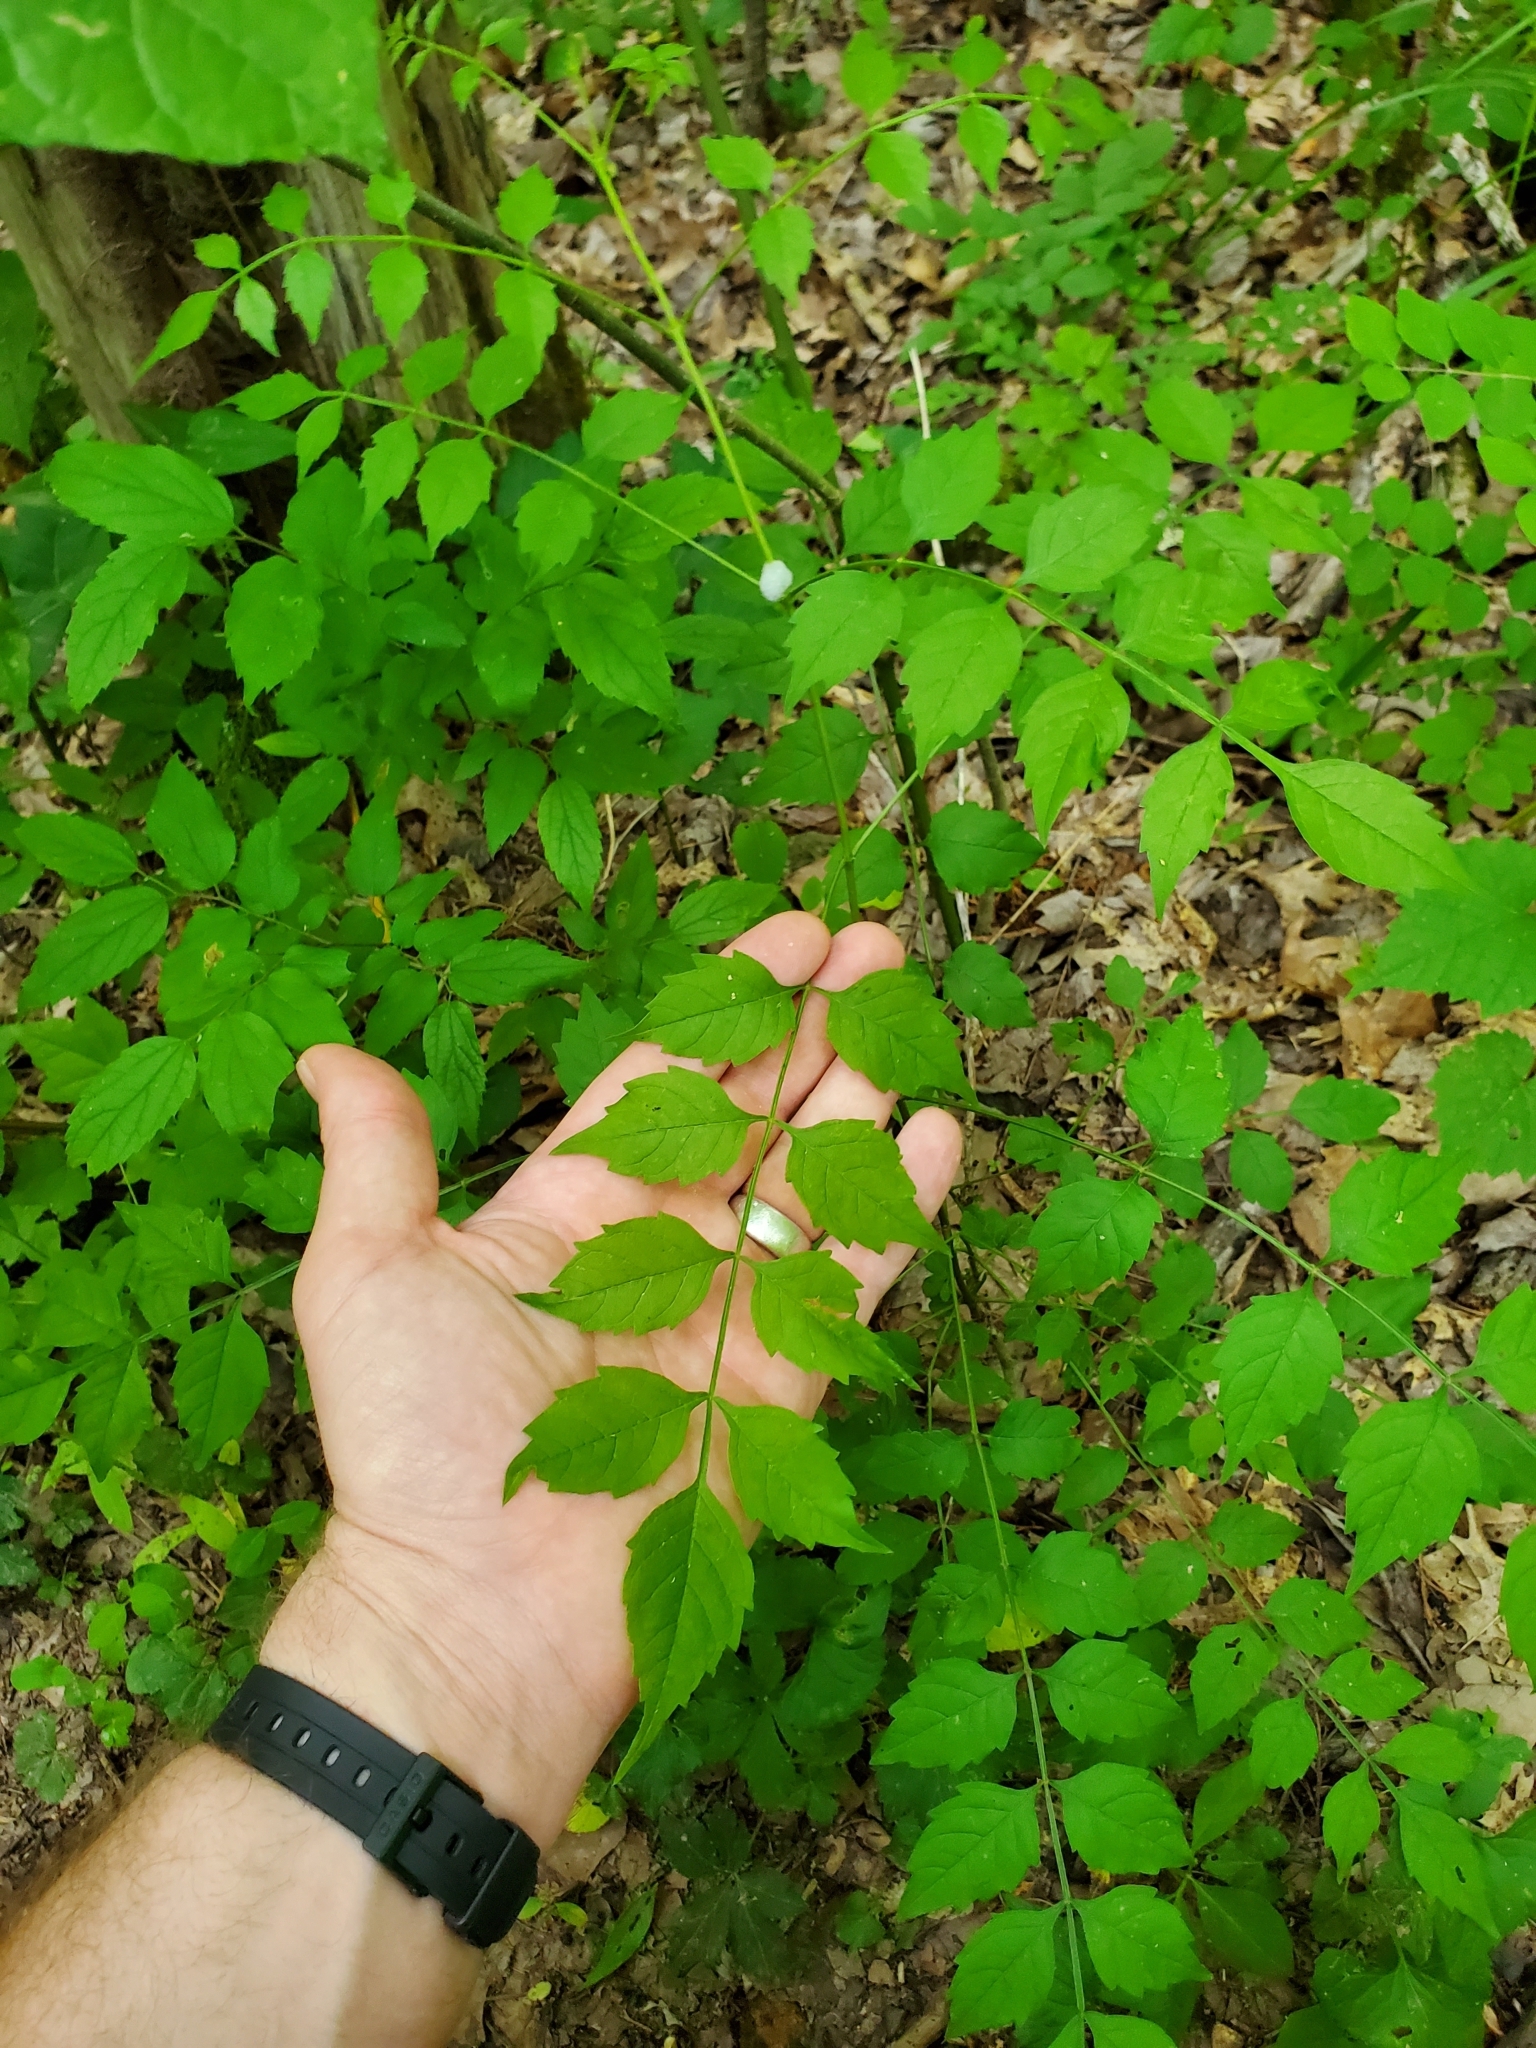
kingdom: Plantae
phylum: Tracheophyta
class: Magnoliopsida
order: Lamiales
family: Bignoniaceae
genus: Campsis
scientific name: Campsis radicans
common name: Trumpet-creeper
